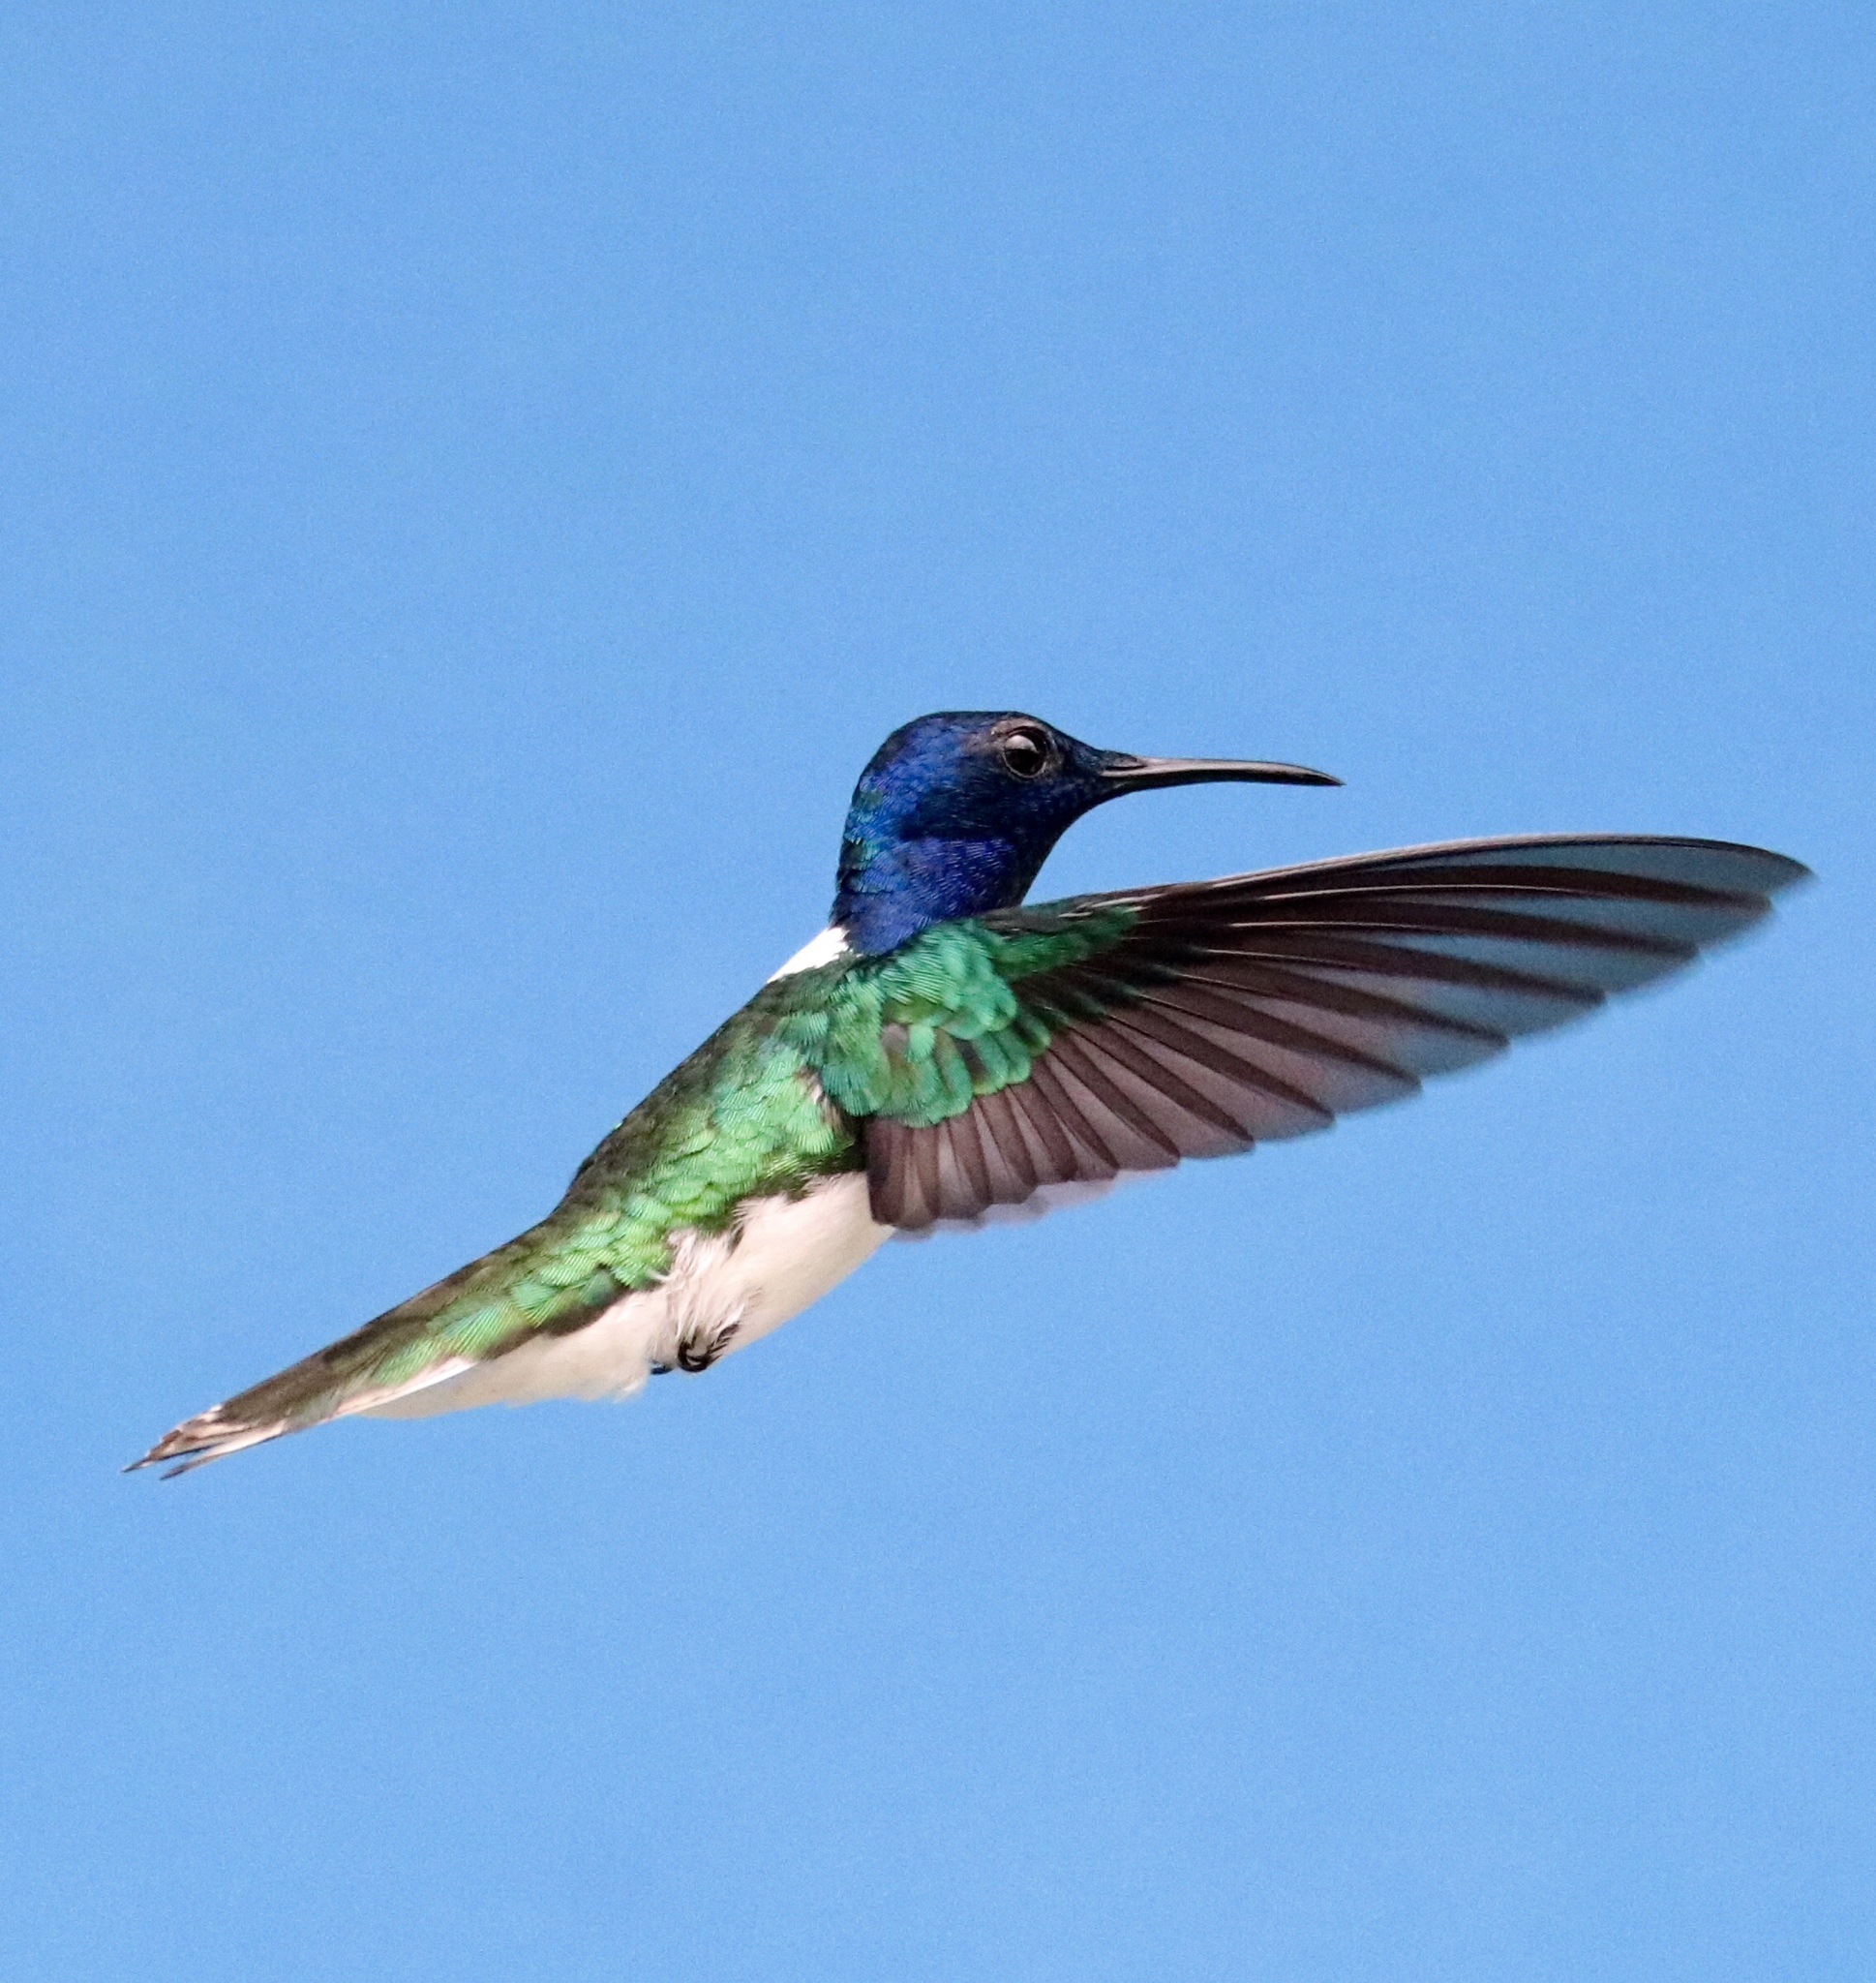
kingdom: Animalia
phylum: Chordata
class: Aves
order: Apodiformes
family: Trochilidae
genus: Florisuga
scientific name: Florisuga mellivora
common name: White-necked jacobin
